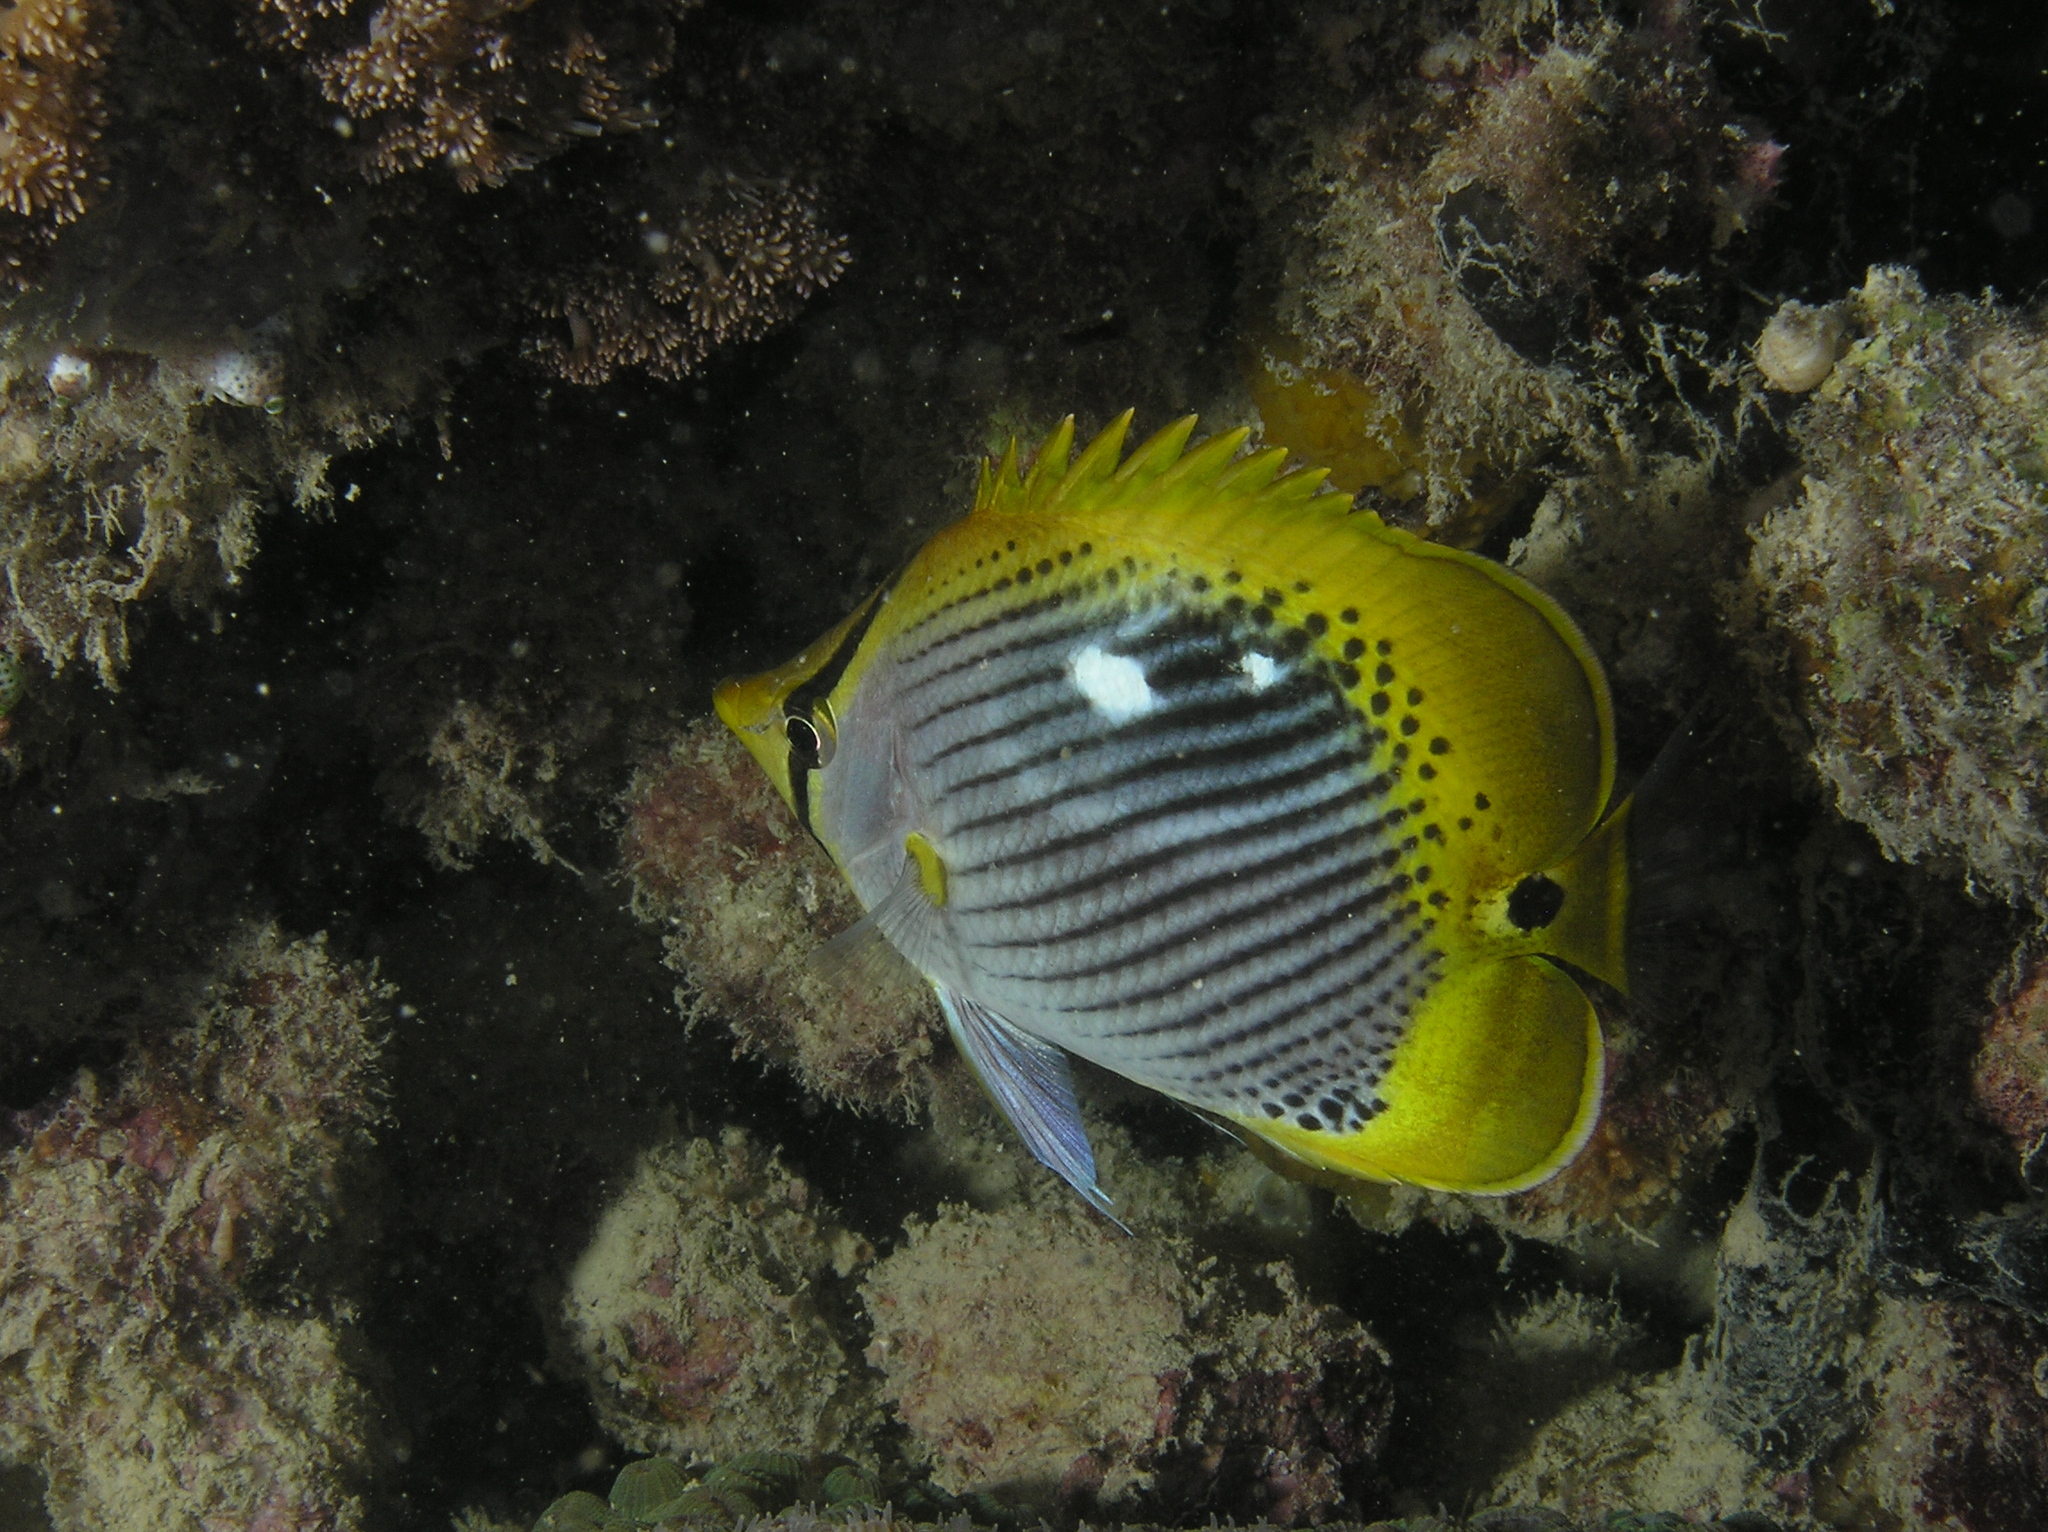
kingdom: Animalia
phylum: Chordata
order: Perciformes
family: Chaetodontidae
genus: Chaetodon
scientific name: Chaetodon ocellicaudus
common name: Spot-tail butterflyfish
